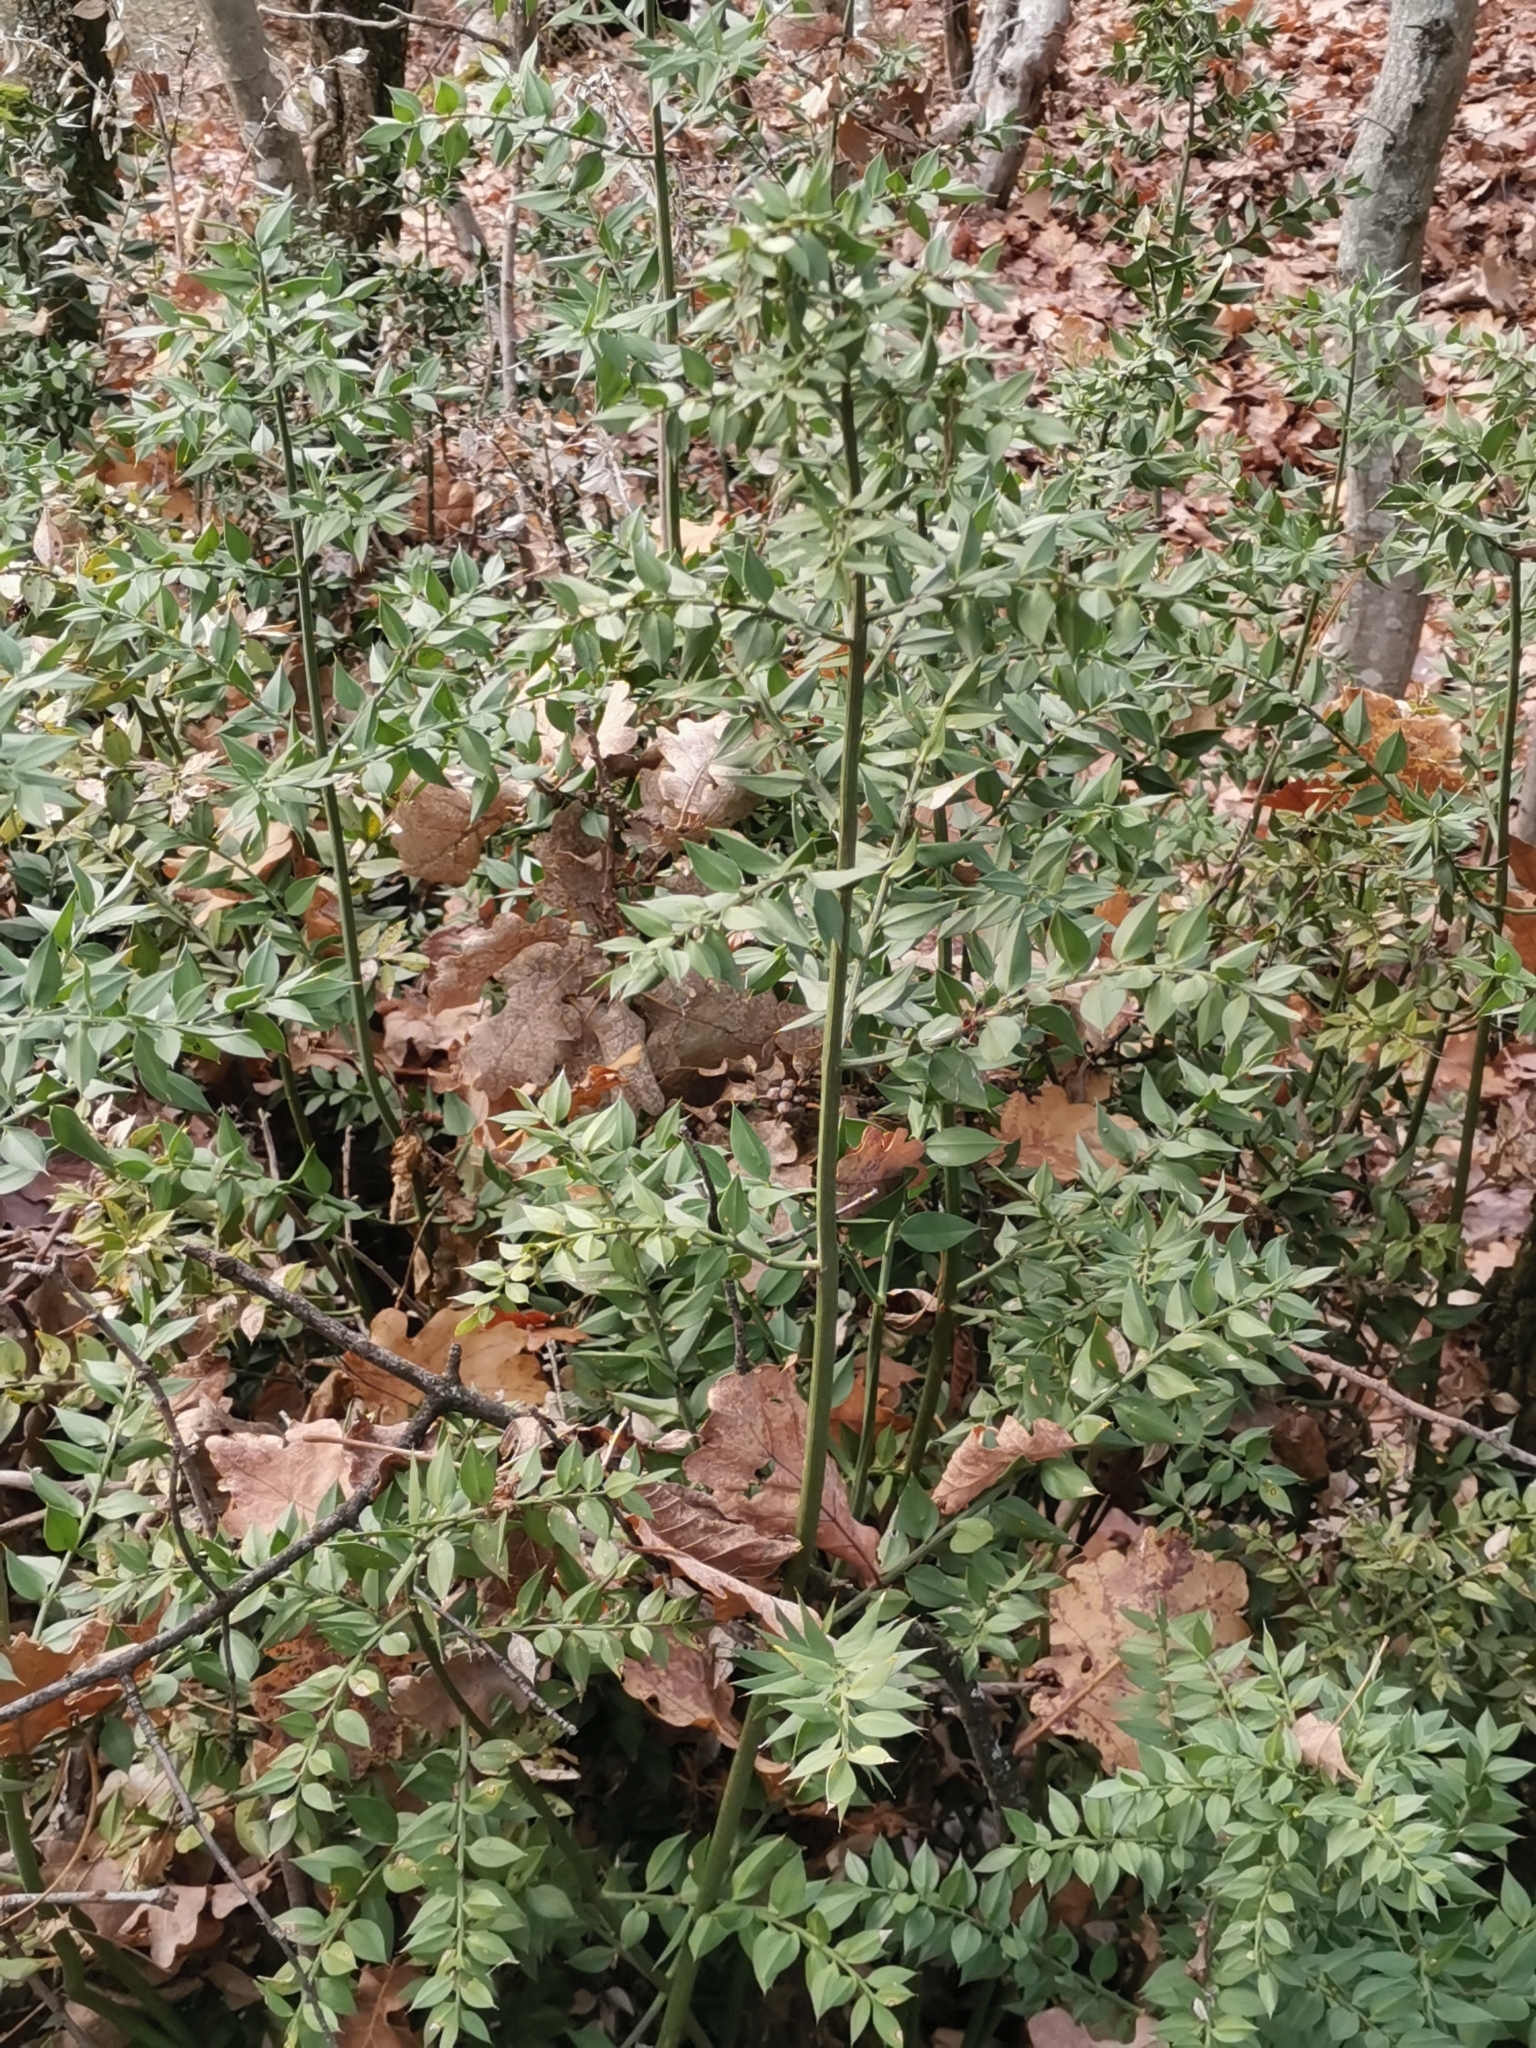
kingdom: Plantae
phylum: Tracheophyta
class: Liliopsida
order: Asparagales
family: Asparagaceae
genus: Ruscus
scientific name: Ruscus aculeatus
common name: Butcher's-broom
